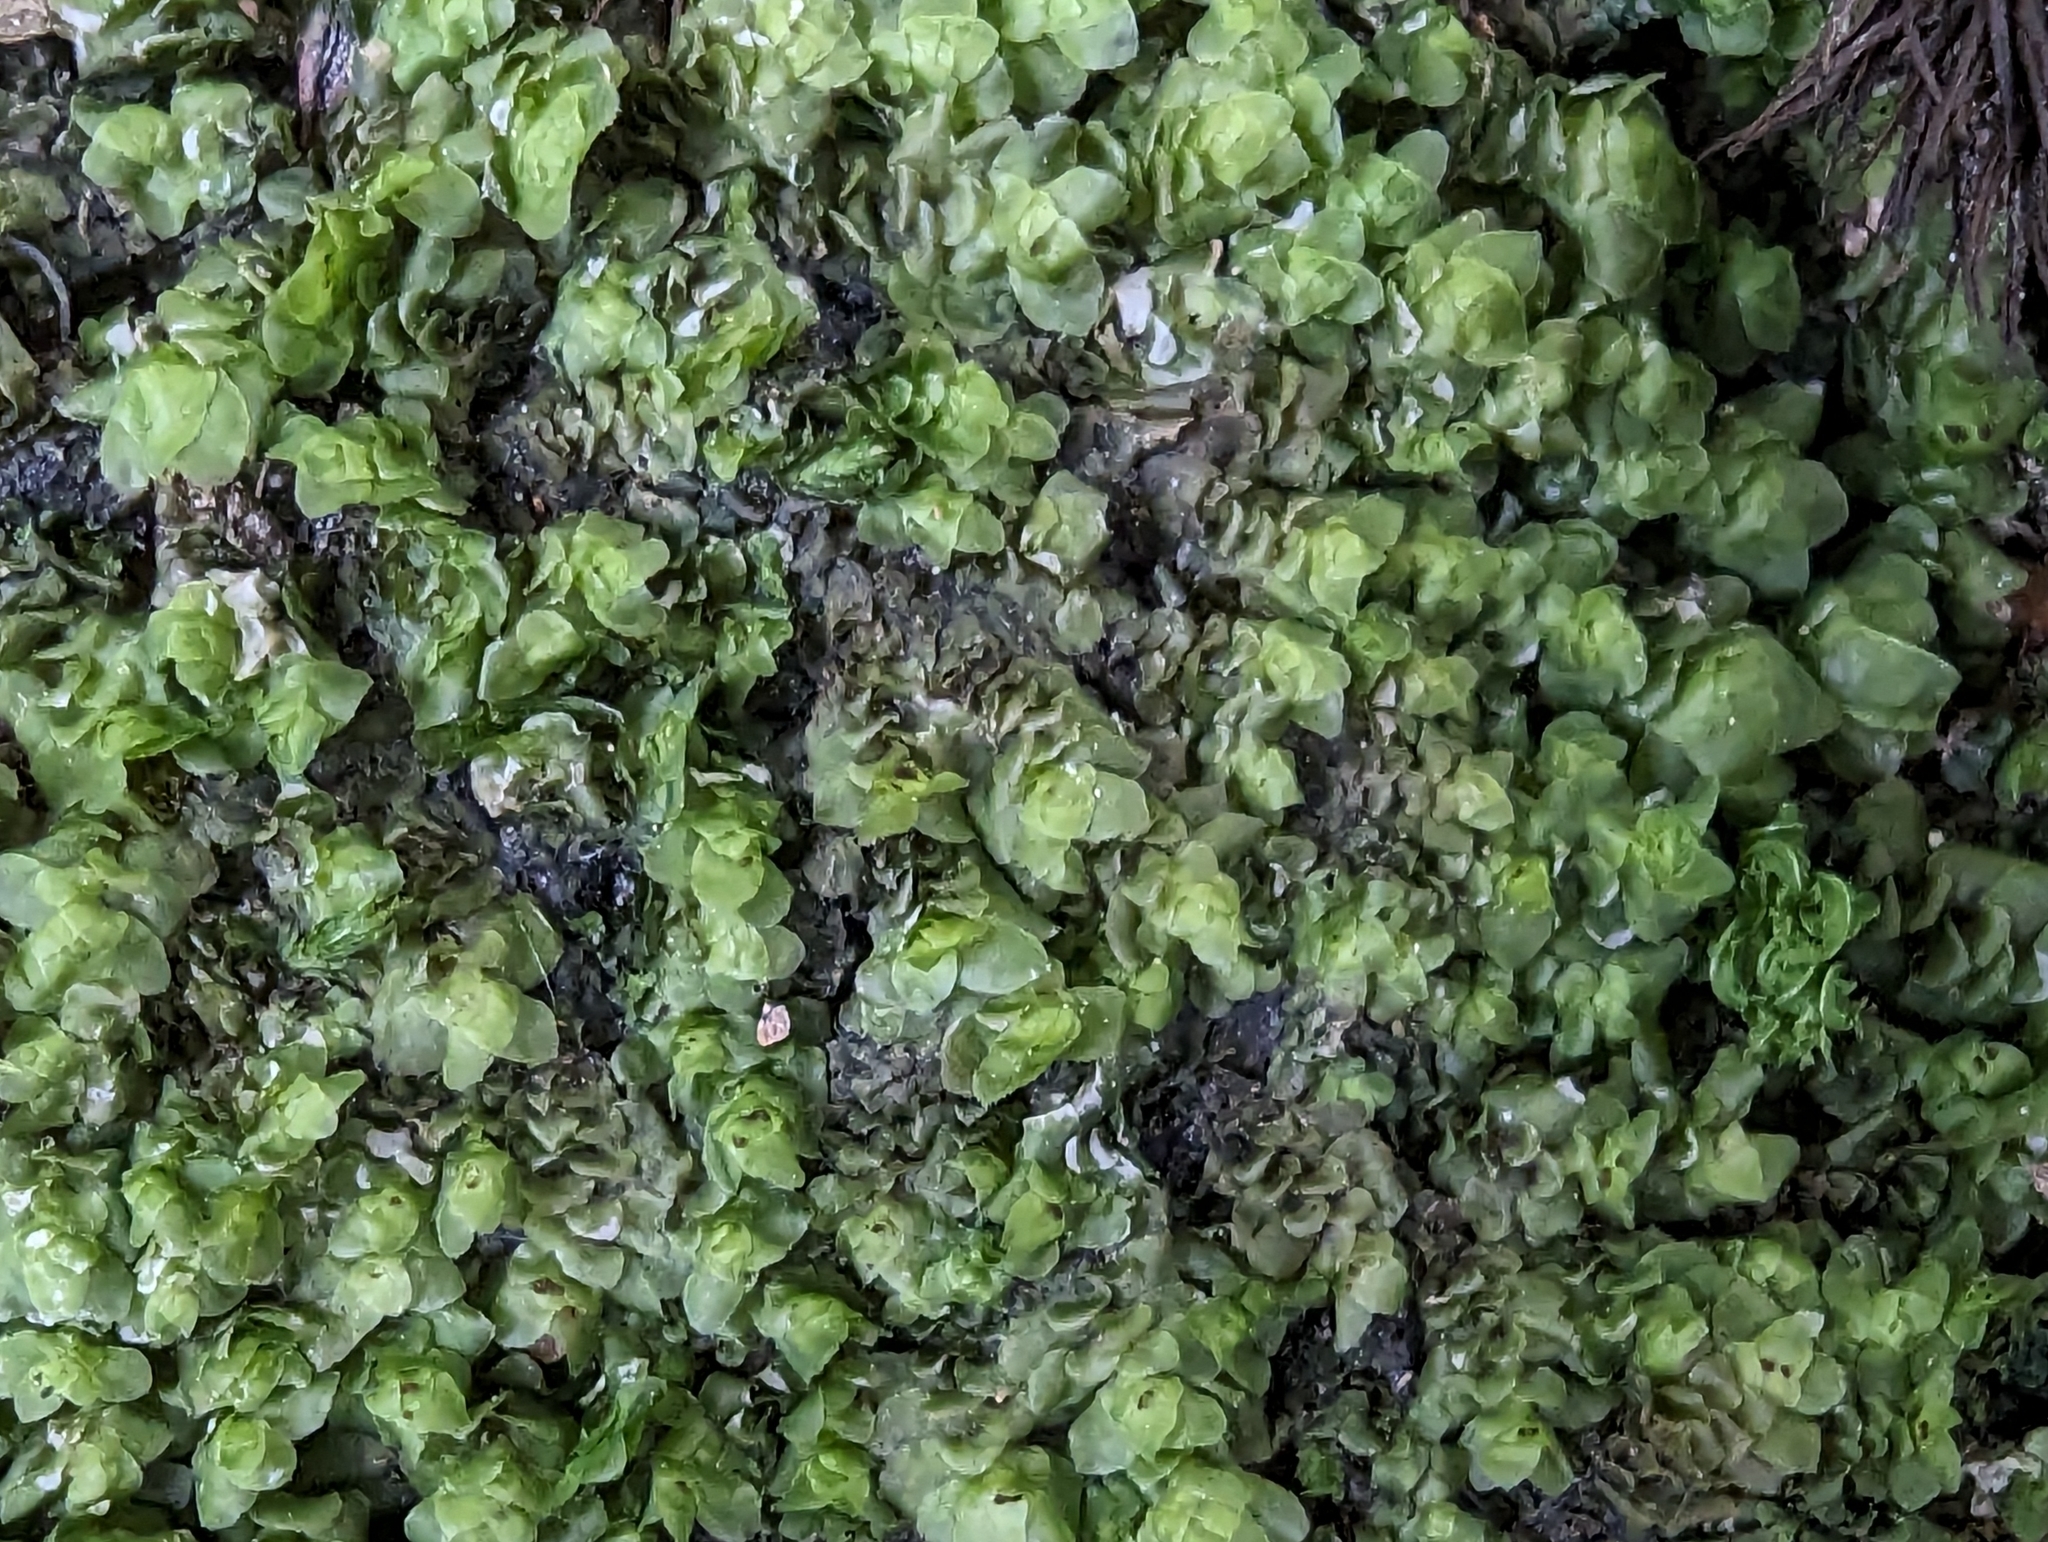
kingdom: Plantae
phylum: Marchantiophyta
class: Jungermanniopsida
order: Jungermanniales
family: Scapaniaceae
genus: Scapania
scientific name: Scapania nemorea
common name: Grove earwort
